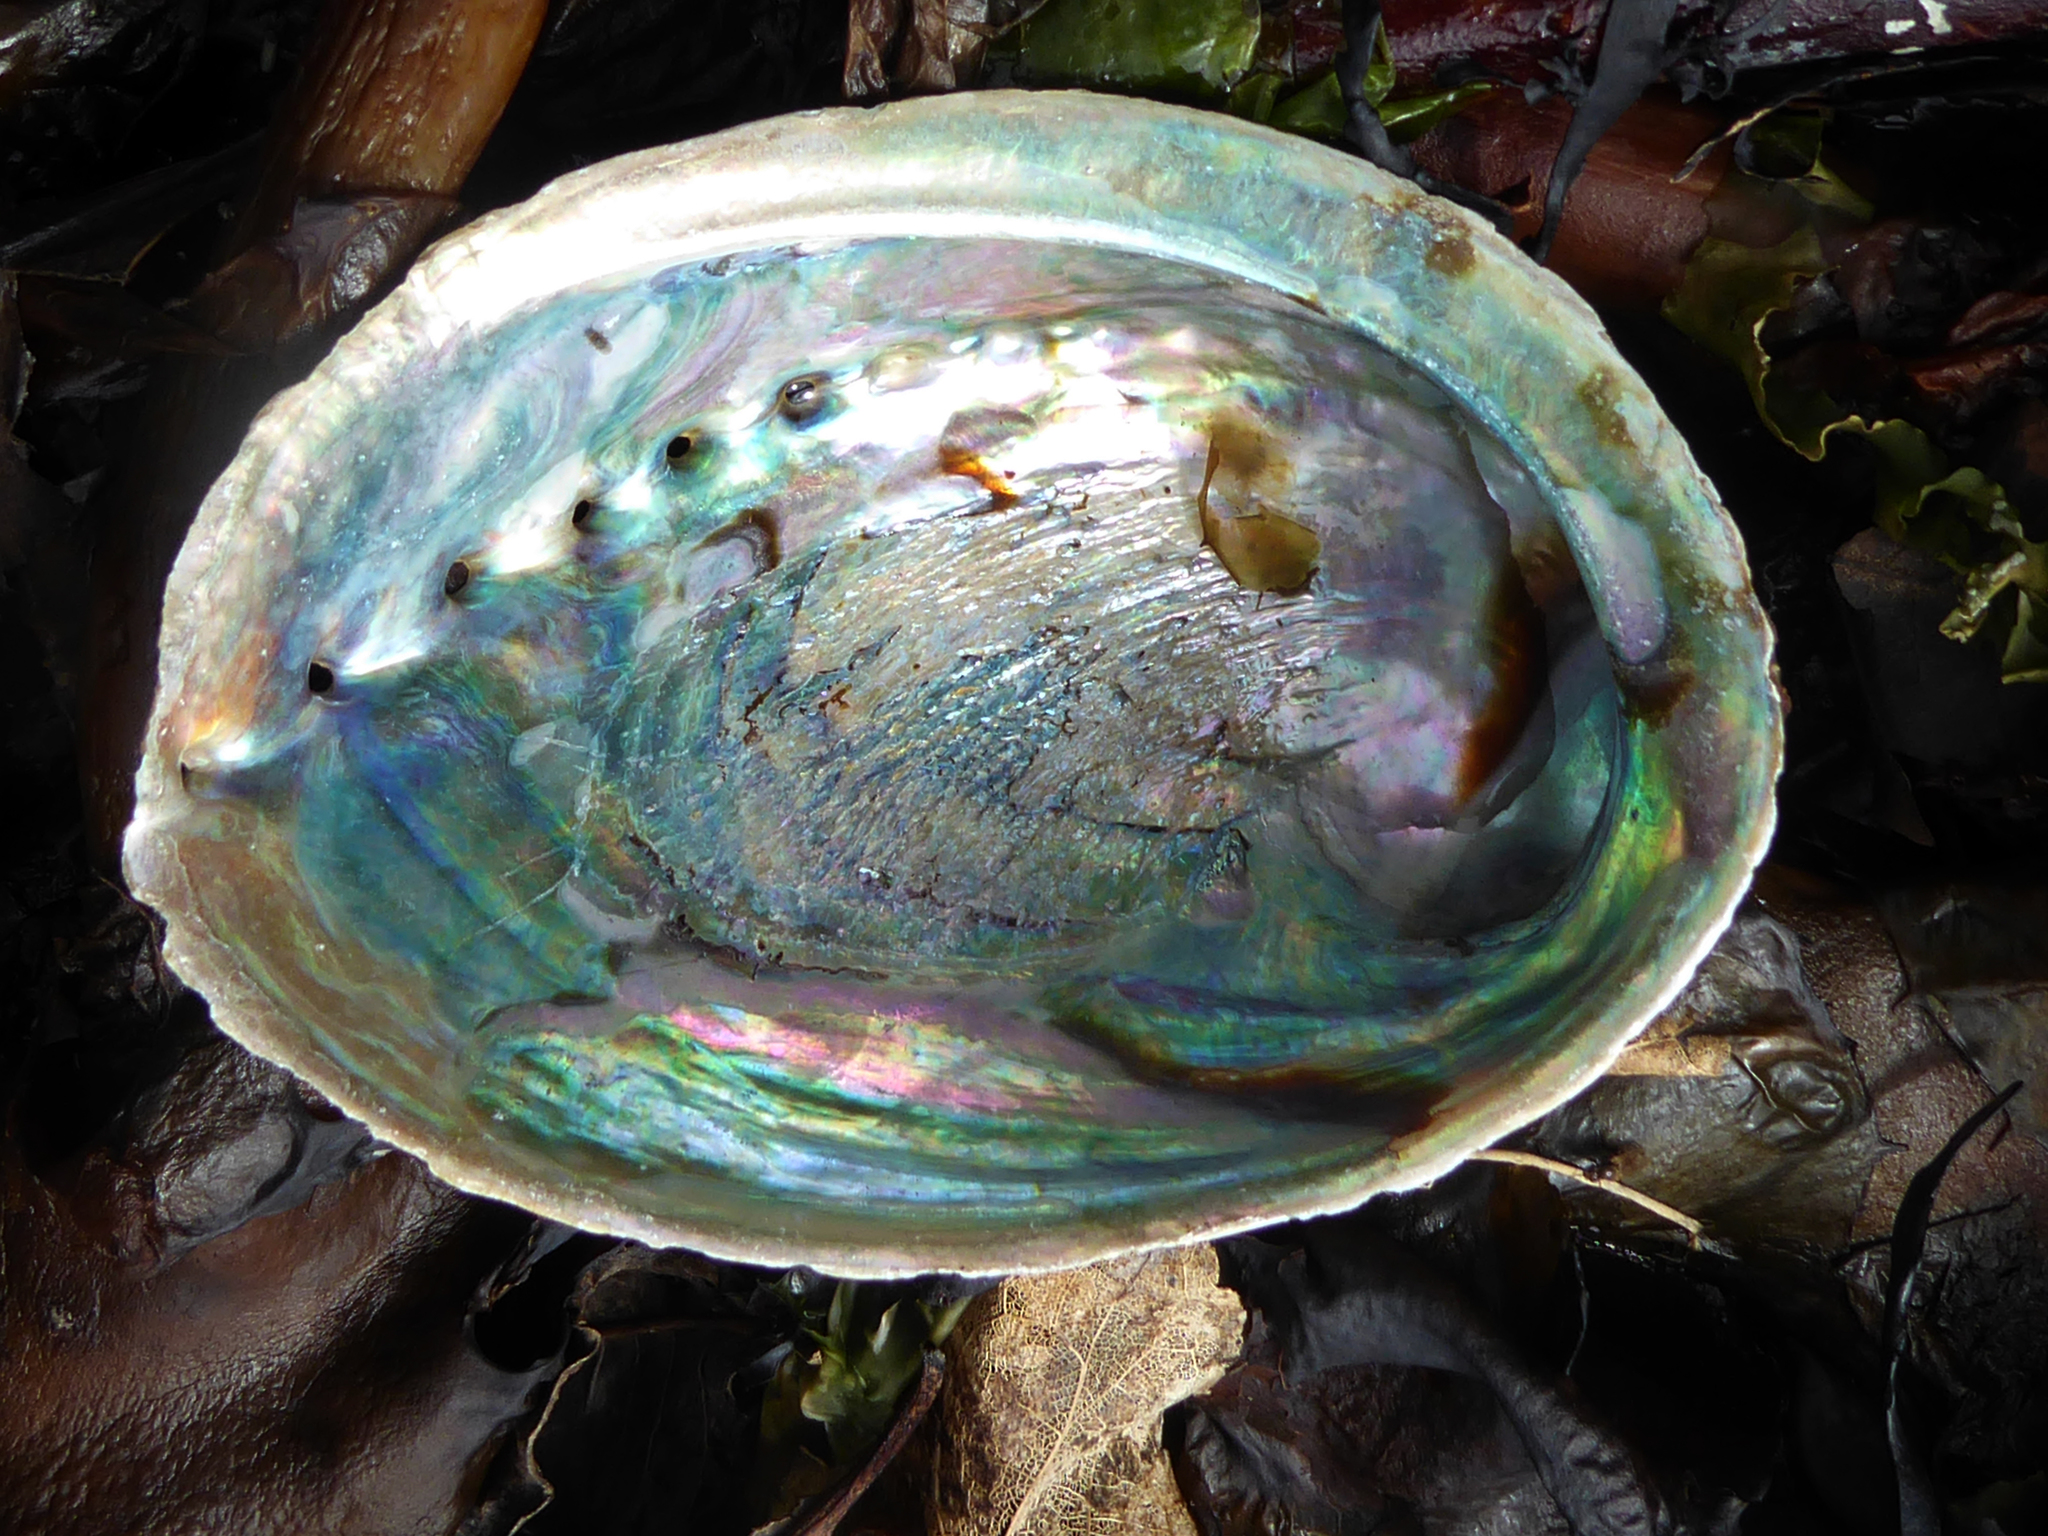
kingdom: Animalia
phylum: Mollusca
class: Gastropoda
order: Lepetellida
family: Haliotidae
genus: Haliotis
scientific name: Haliotis iris
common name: Abalone
